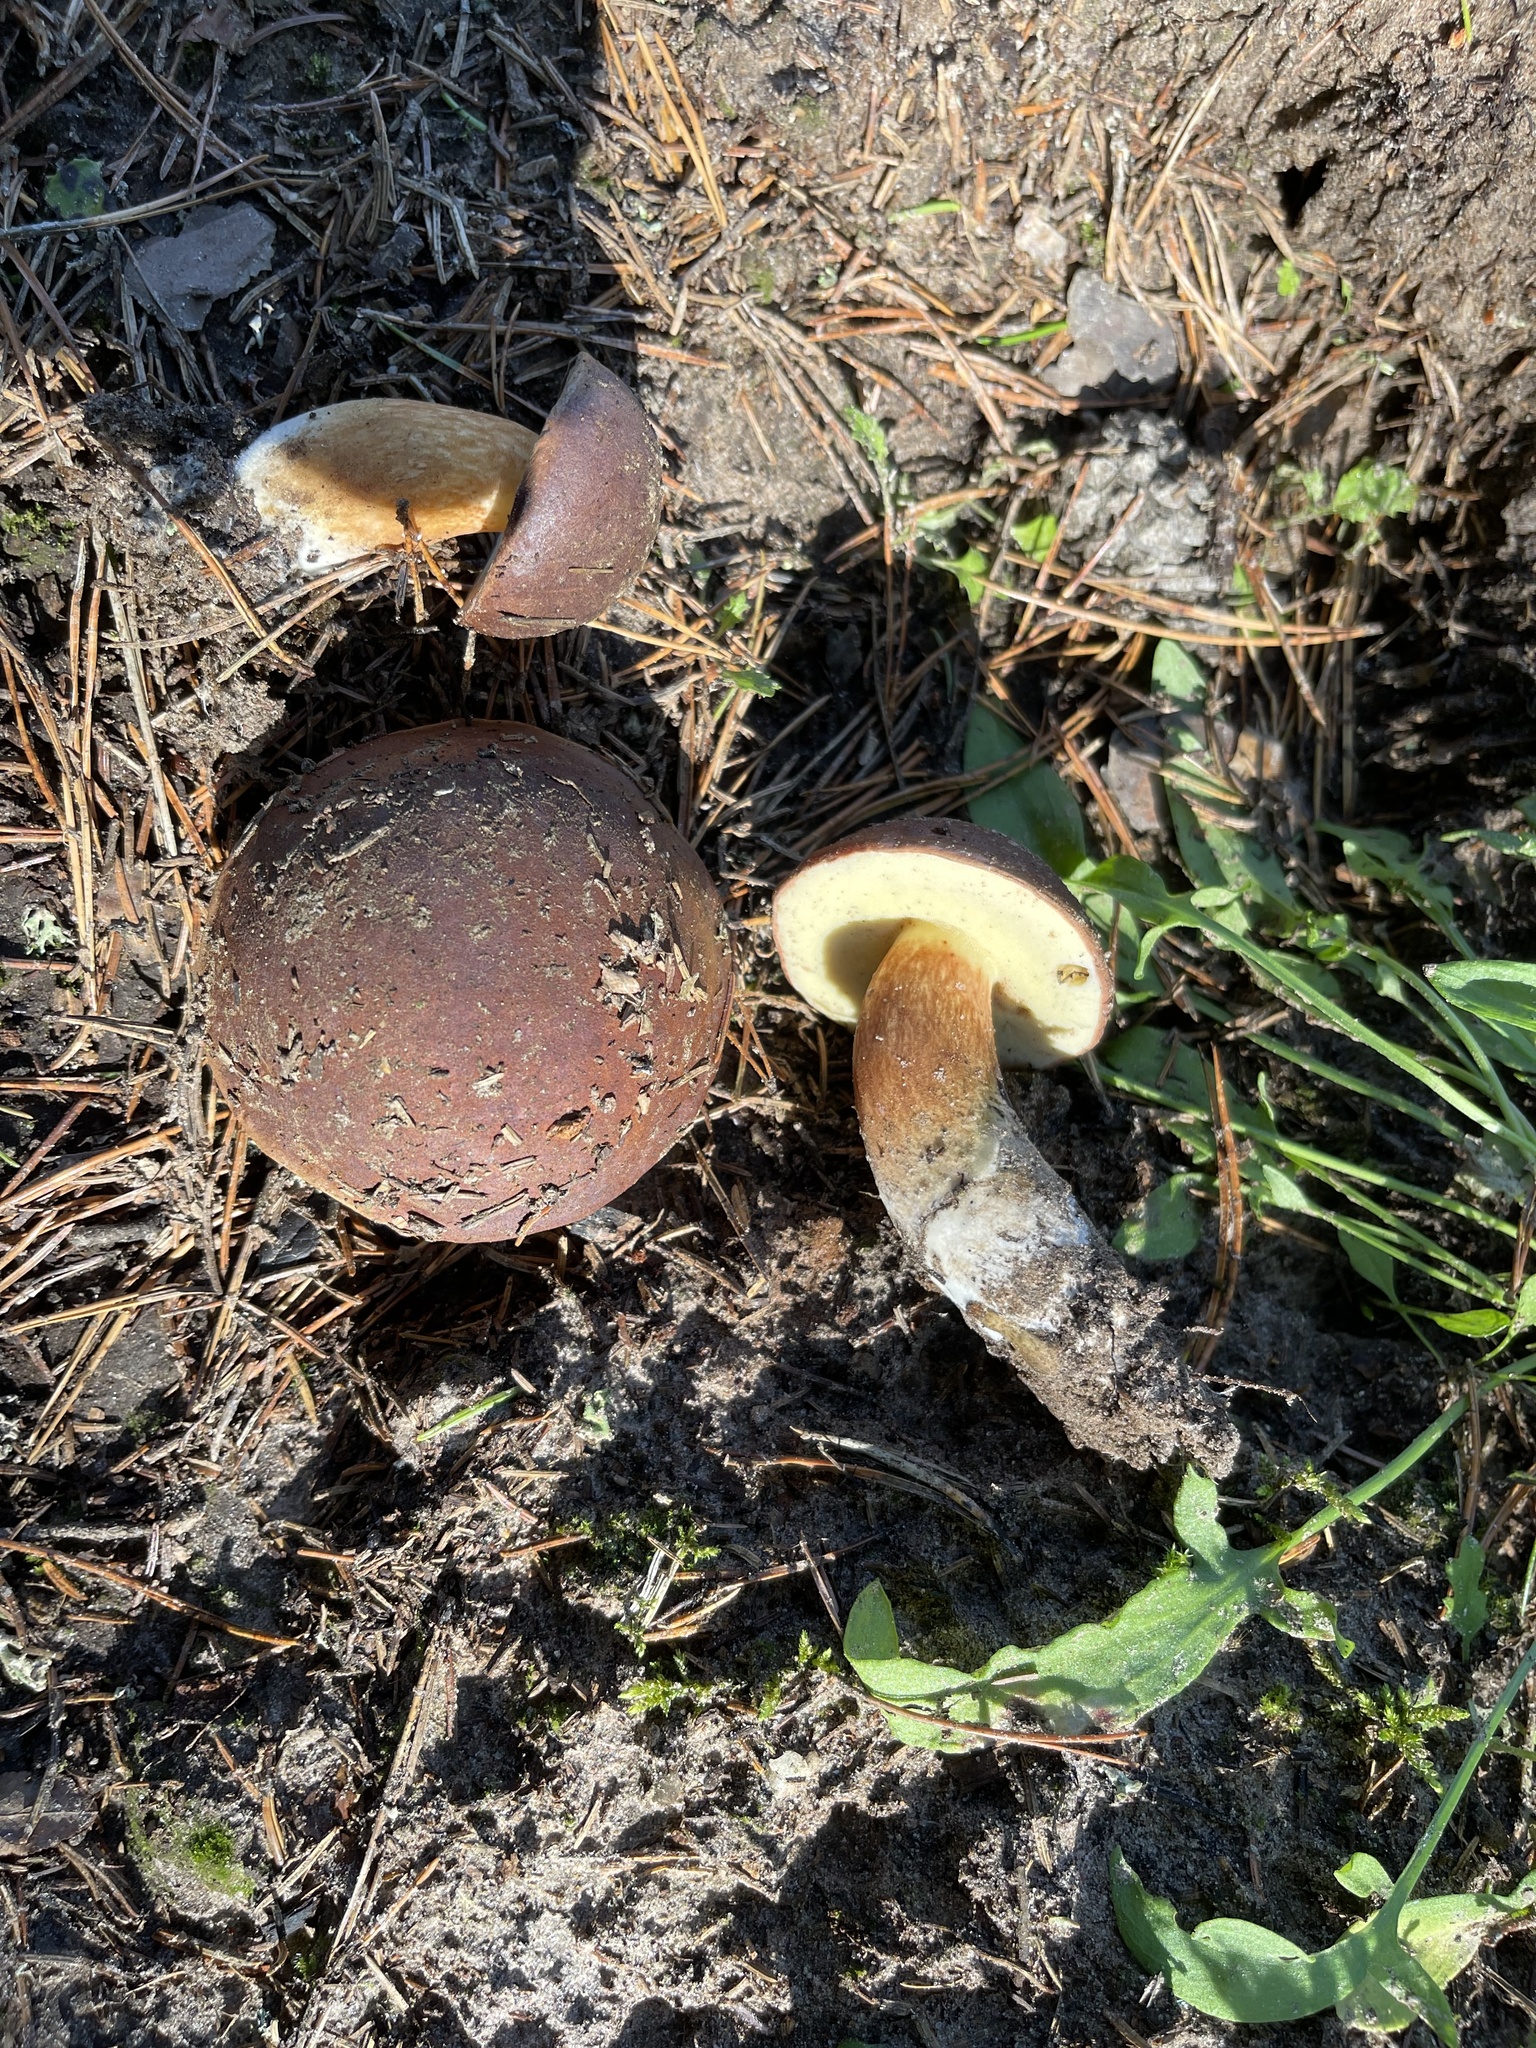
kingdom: Fungi
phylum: Basidiomycota
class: Agaricomycetes
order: Boletales
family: Boletaceae
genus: Imleria
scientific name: Imleria badia
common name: Bay bolete
